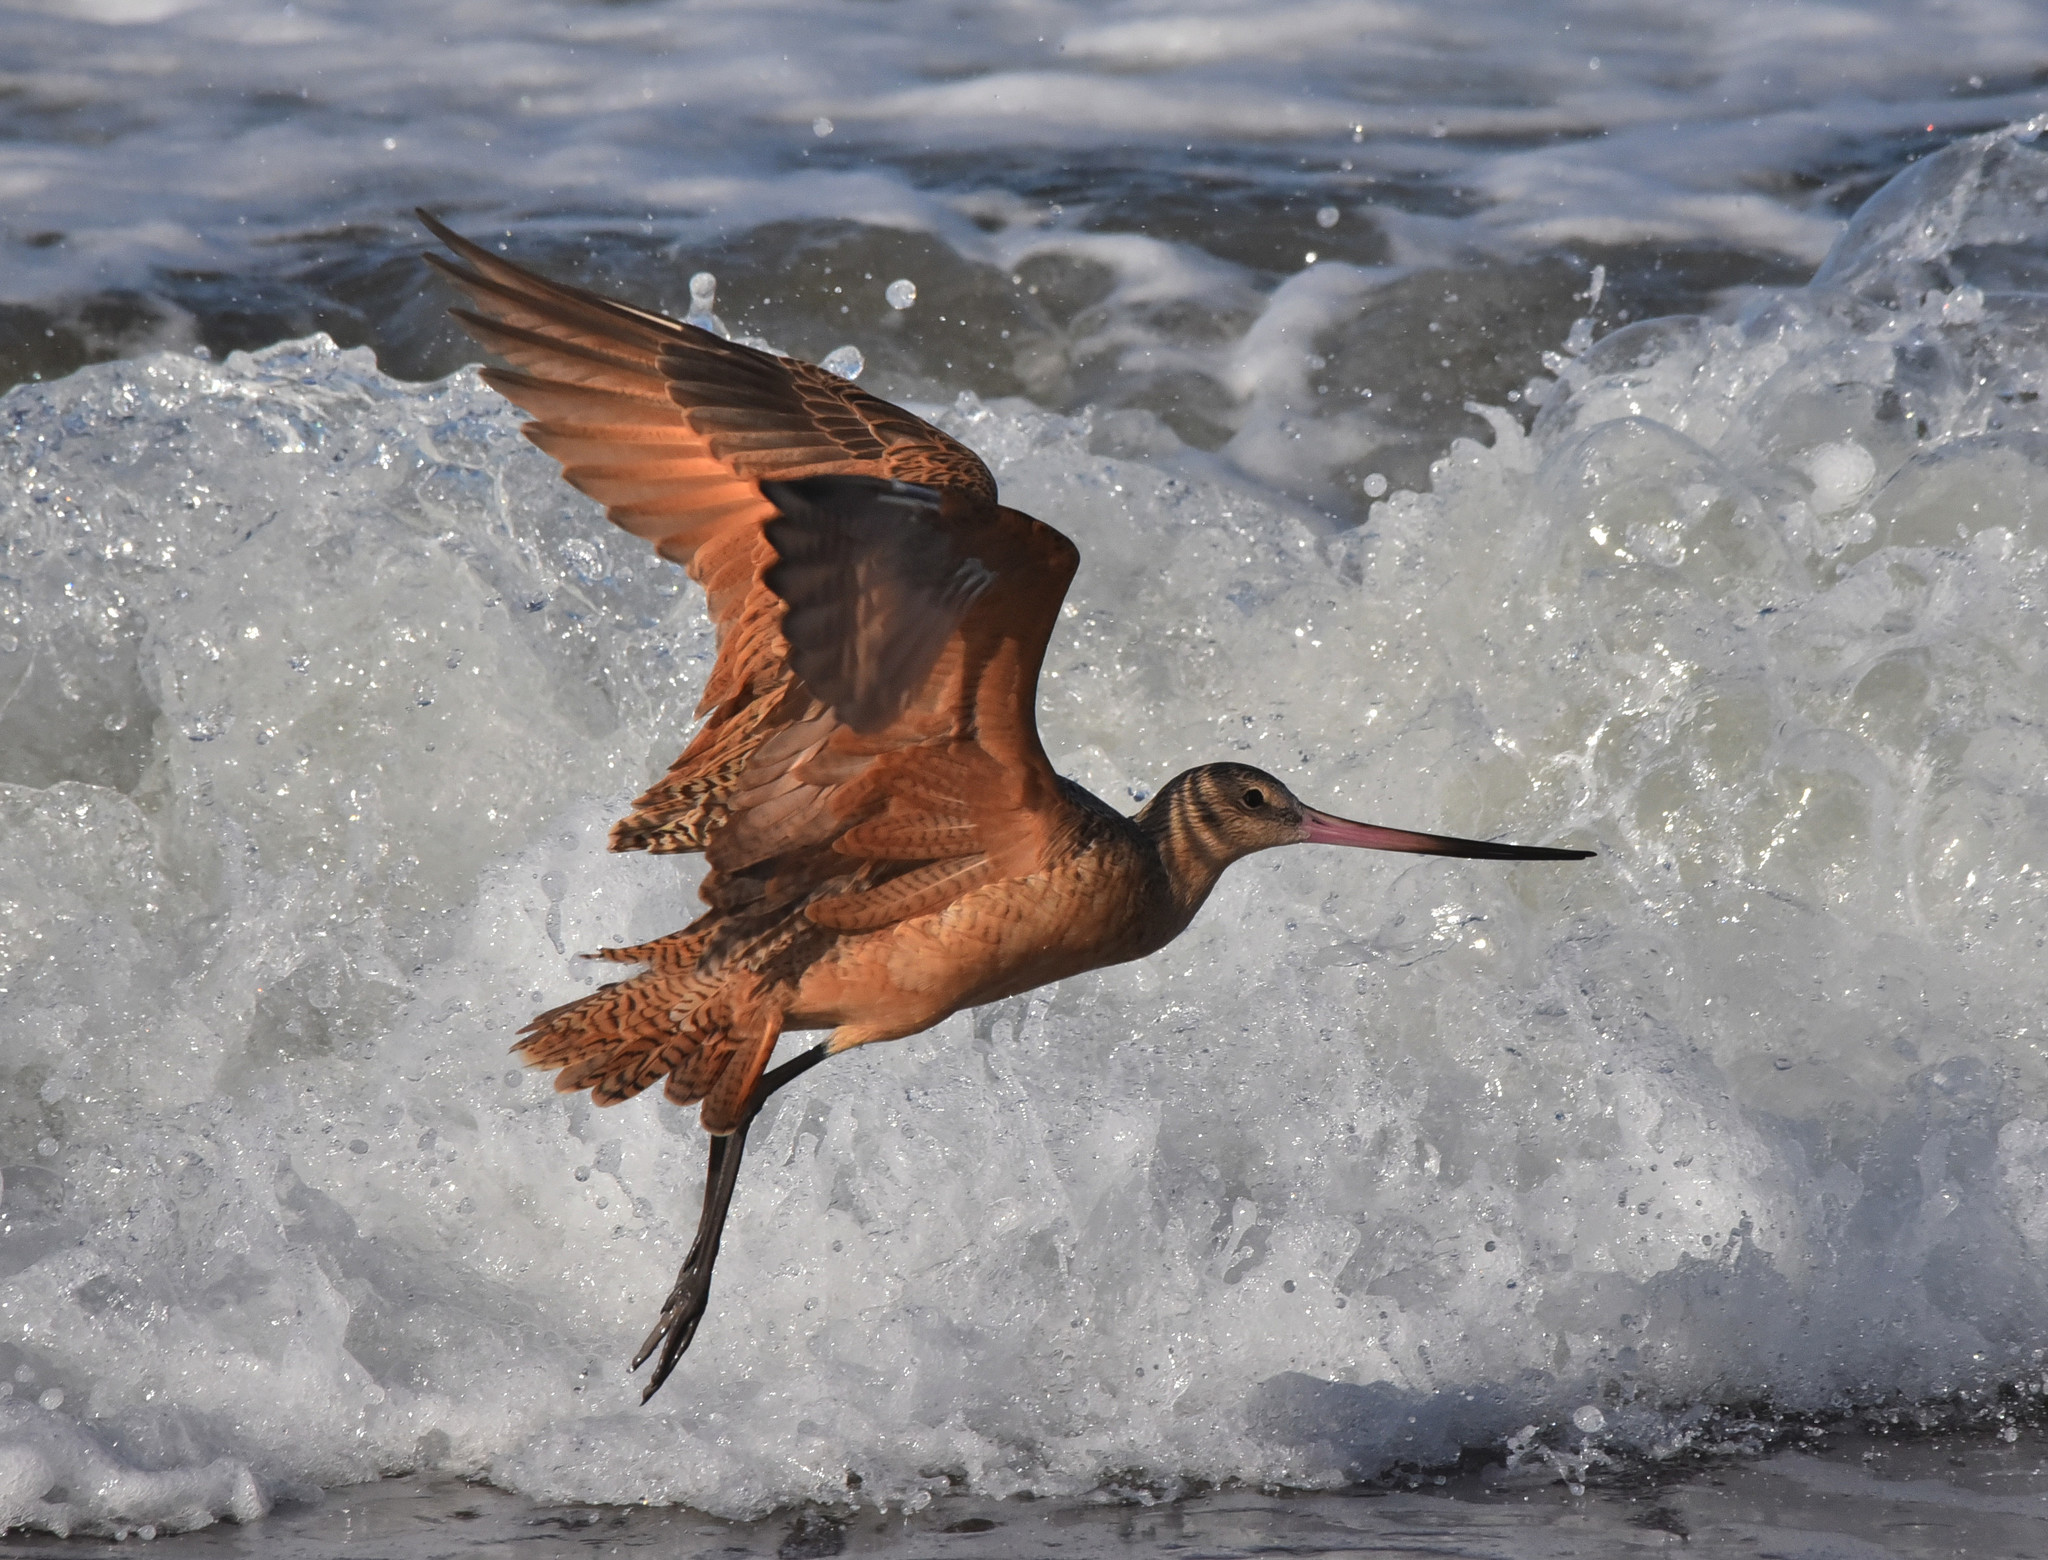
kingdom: Animalia
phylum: Chordata
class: Aves
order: Charadriiformes
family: Scolopacidae
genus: Limosa
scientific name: Limosa fedoa
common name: Marbled godwit
